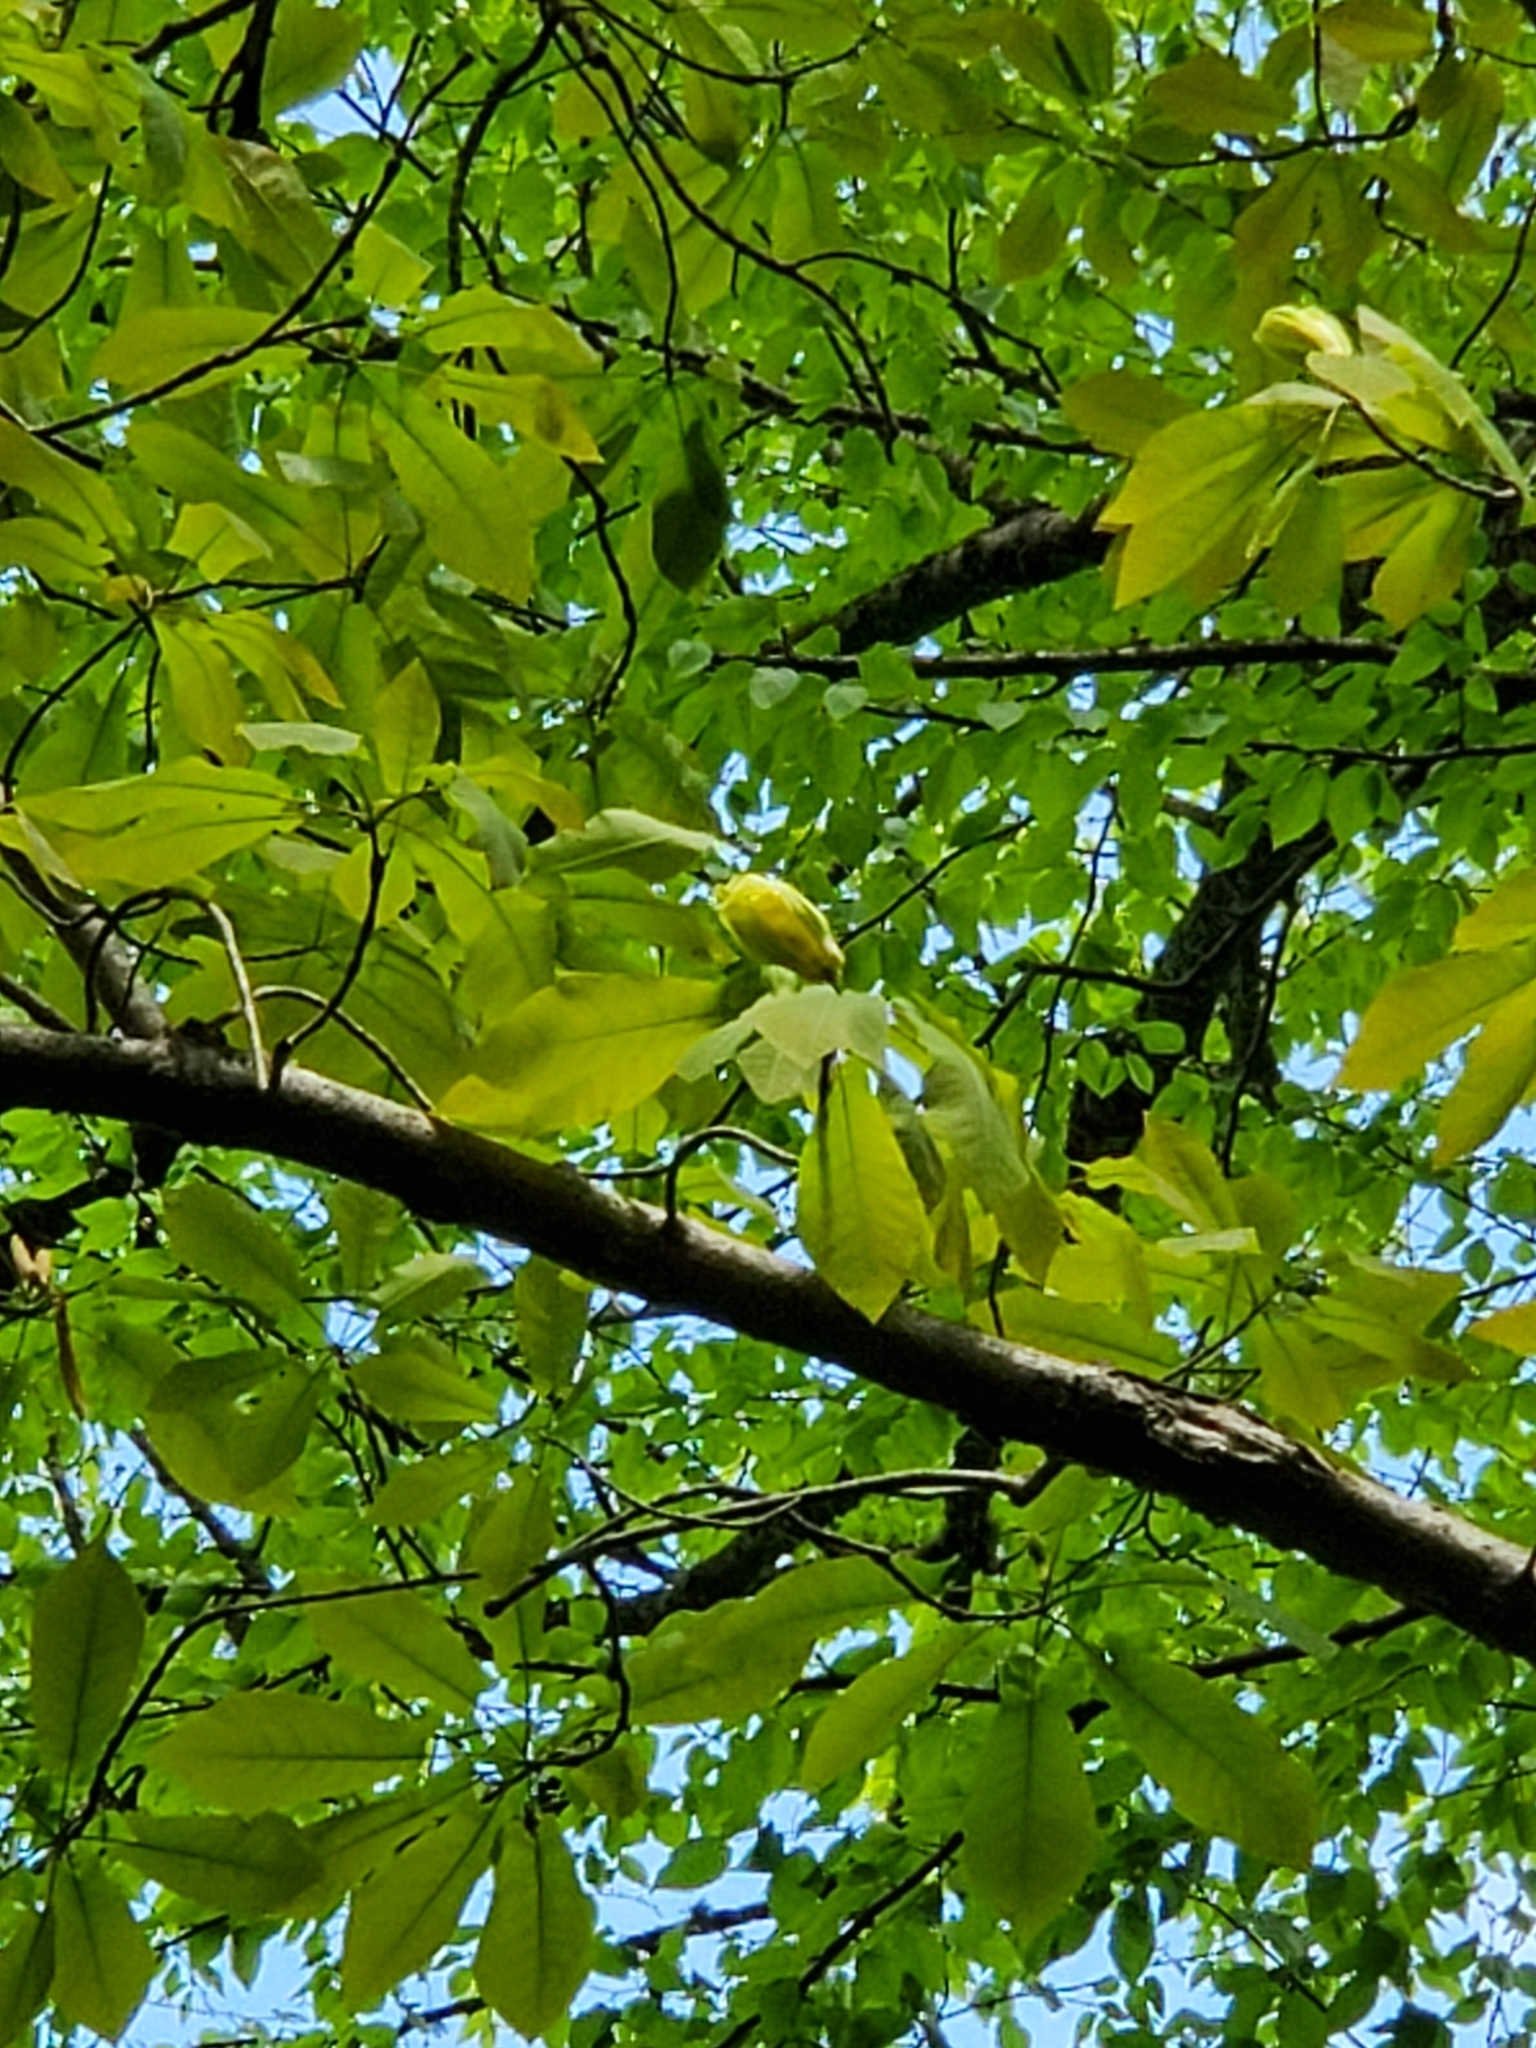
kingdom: Plantae
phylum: Tracheophyta
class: Magnoliopsida
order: Magnoliales
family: Magnoliaceae
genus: Magnolia
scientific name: Magnolia fraseri
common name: Fraser's magnolia
